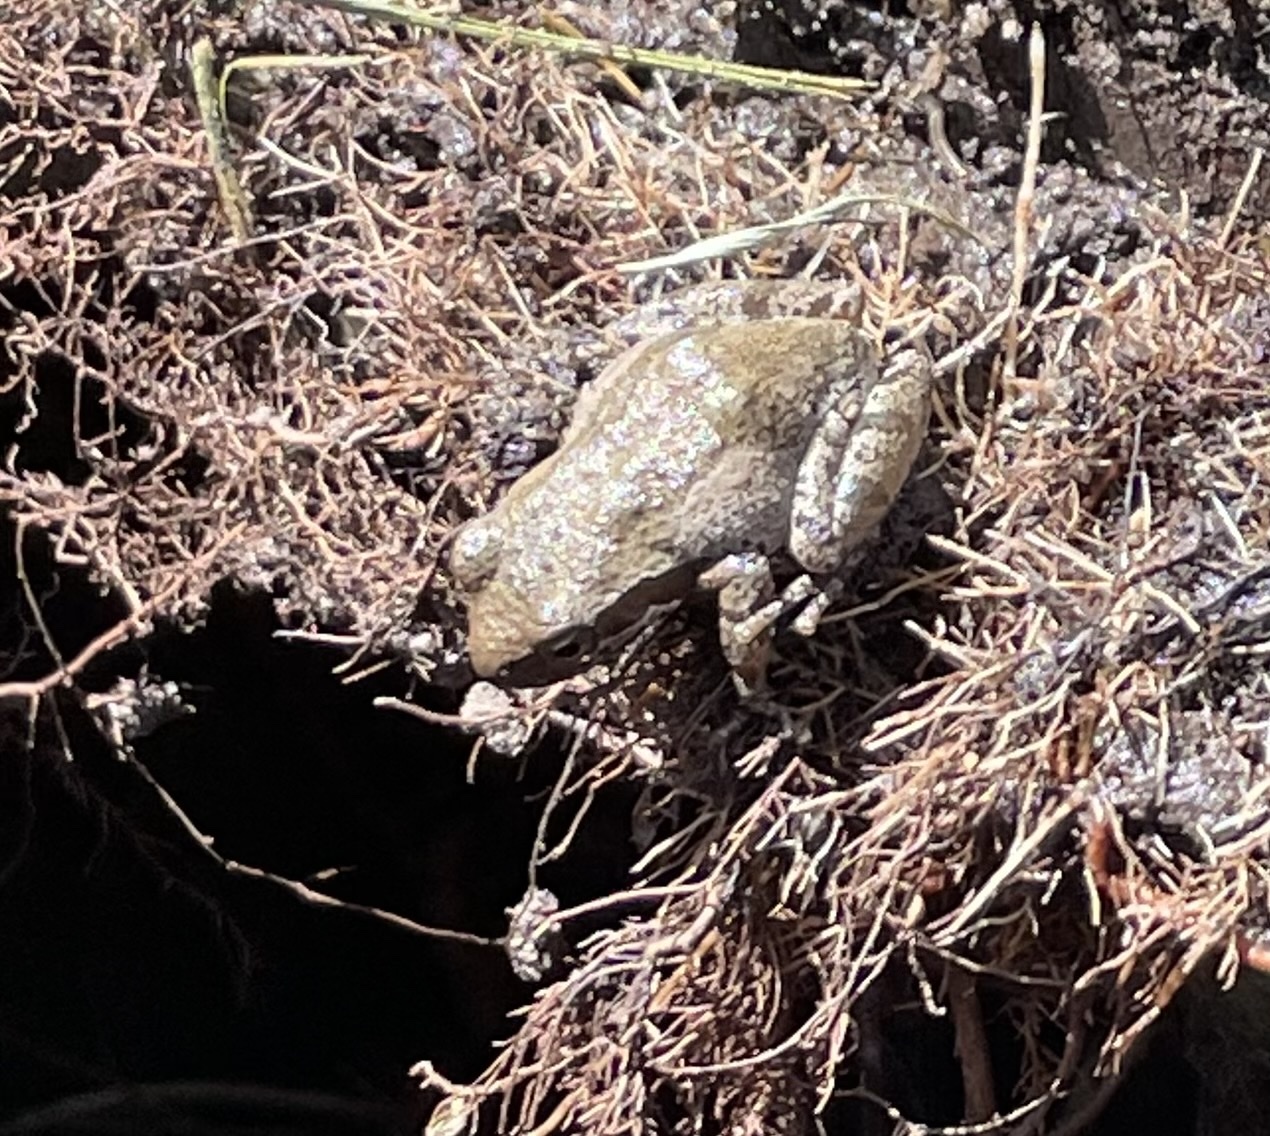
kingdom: Animalia
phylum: Chordata
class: Amphibia
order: Anura
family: Hylidae
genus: Pseudacris
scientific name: Pseudacris regilla
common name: Pacific chorus frog
